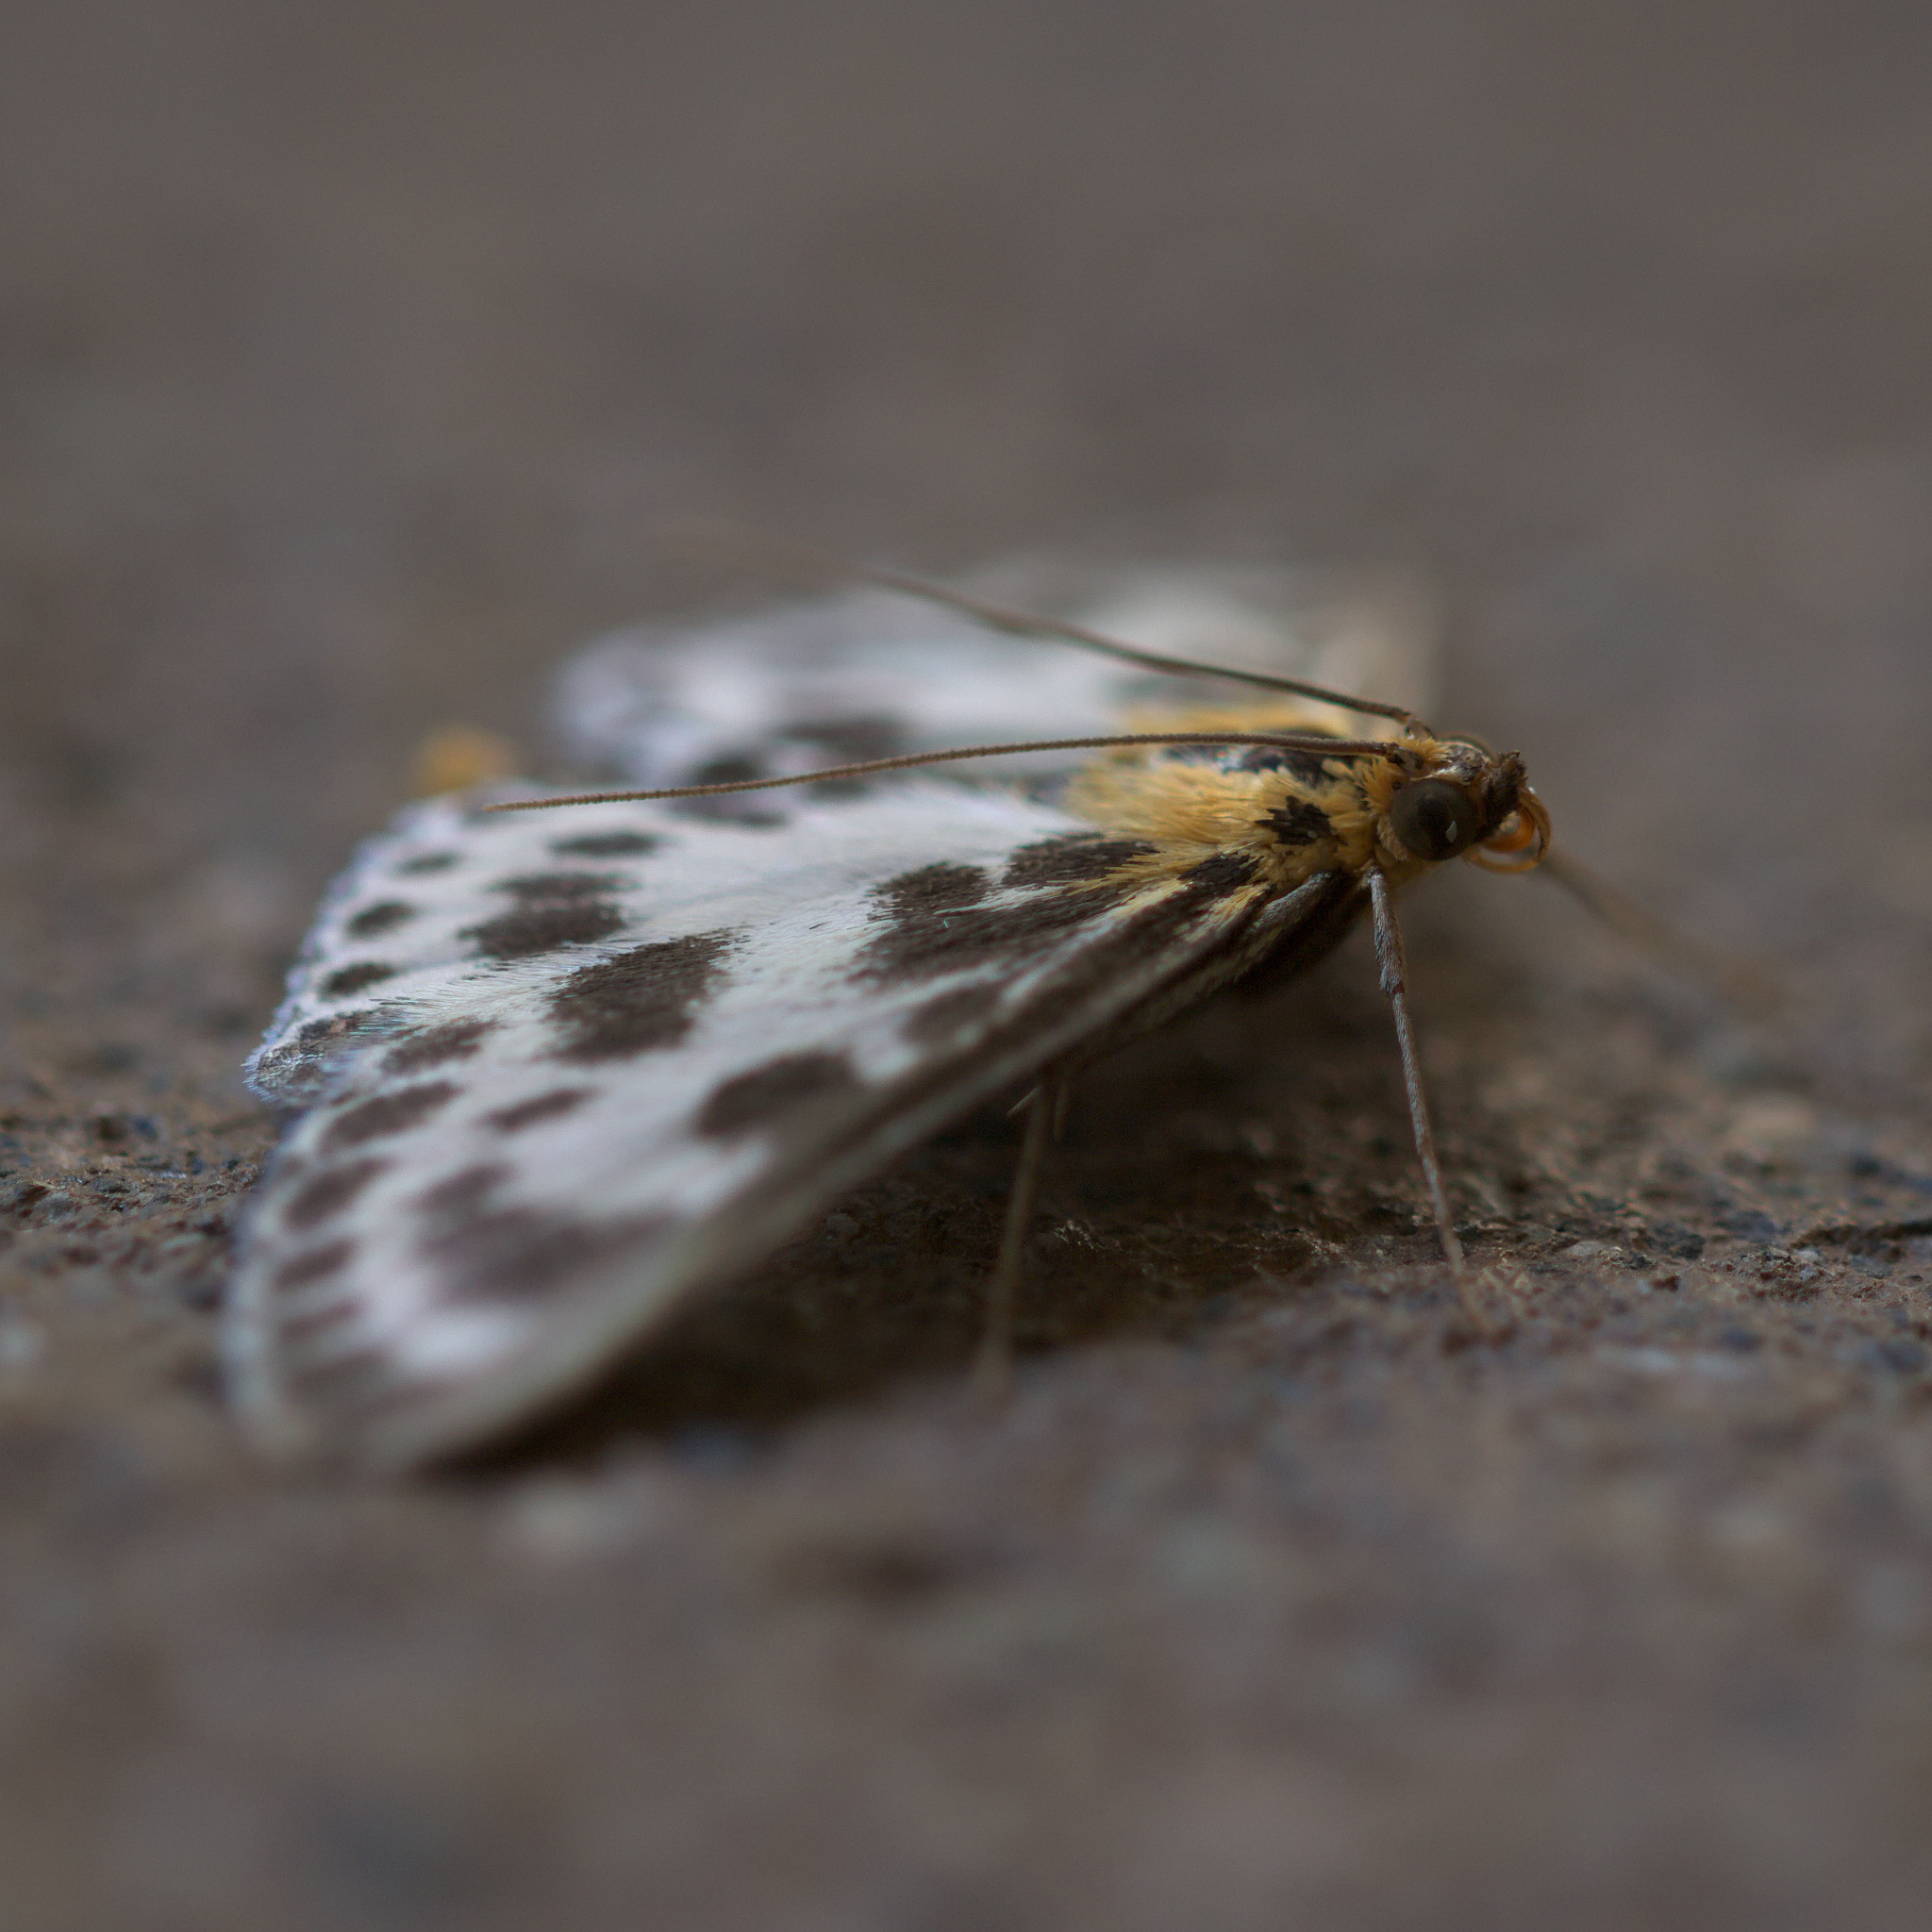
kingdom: Animalia
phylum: Arthropoda
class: Insecta
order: Lepidoptera
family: Crambidae
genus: Anania
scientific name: Anania hortulata
